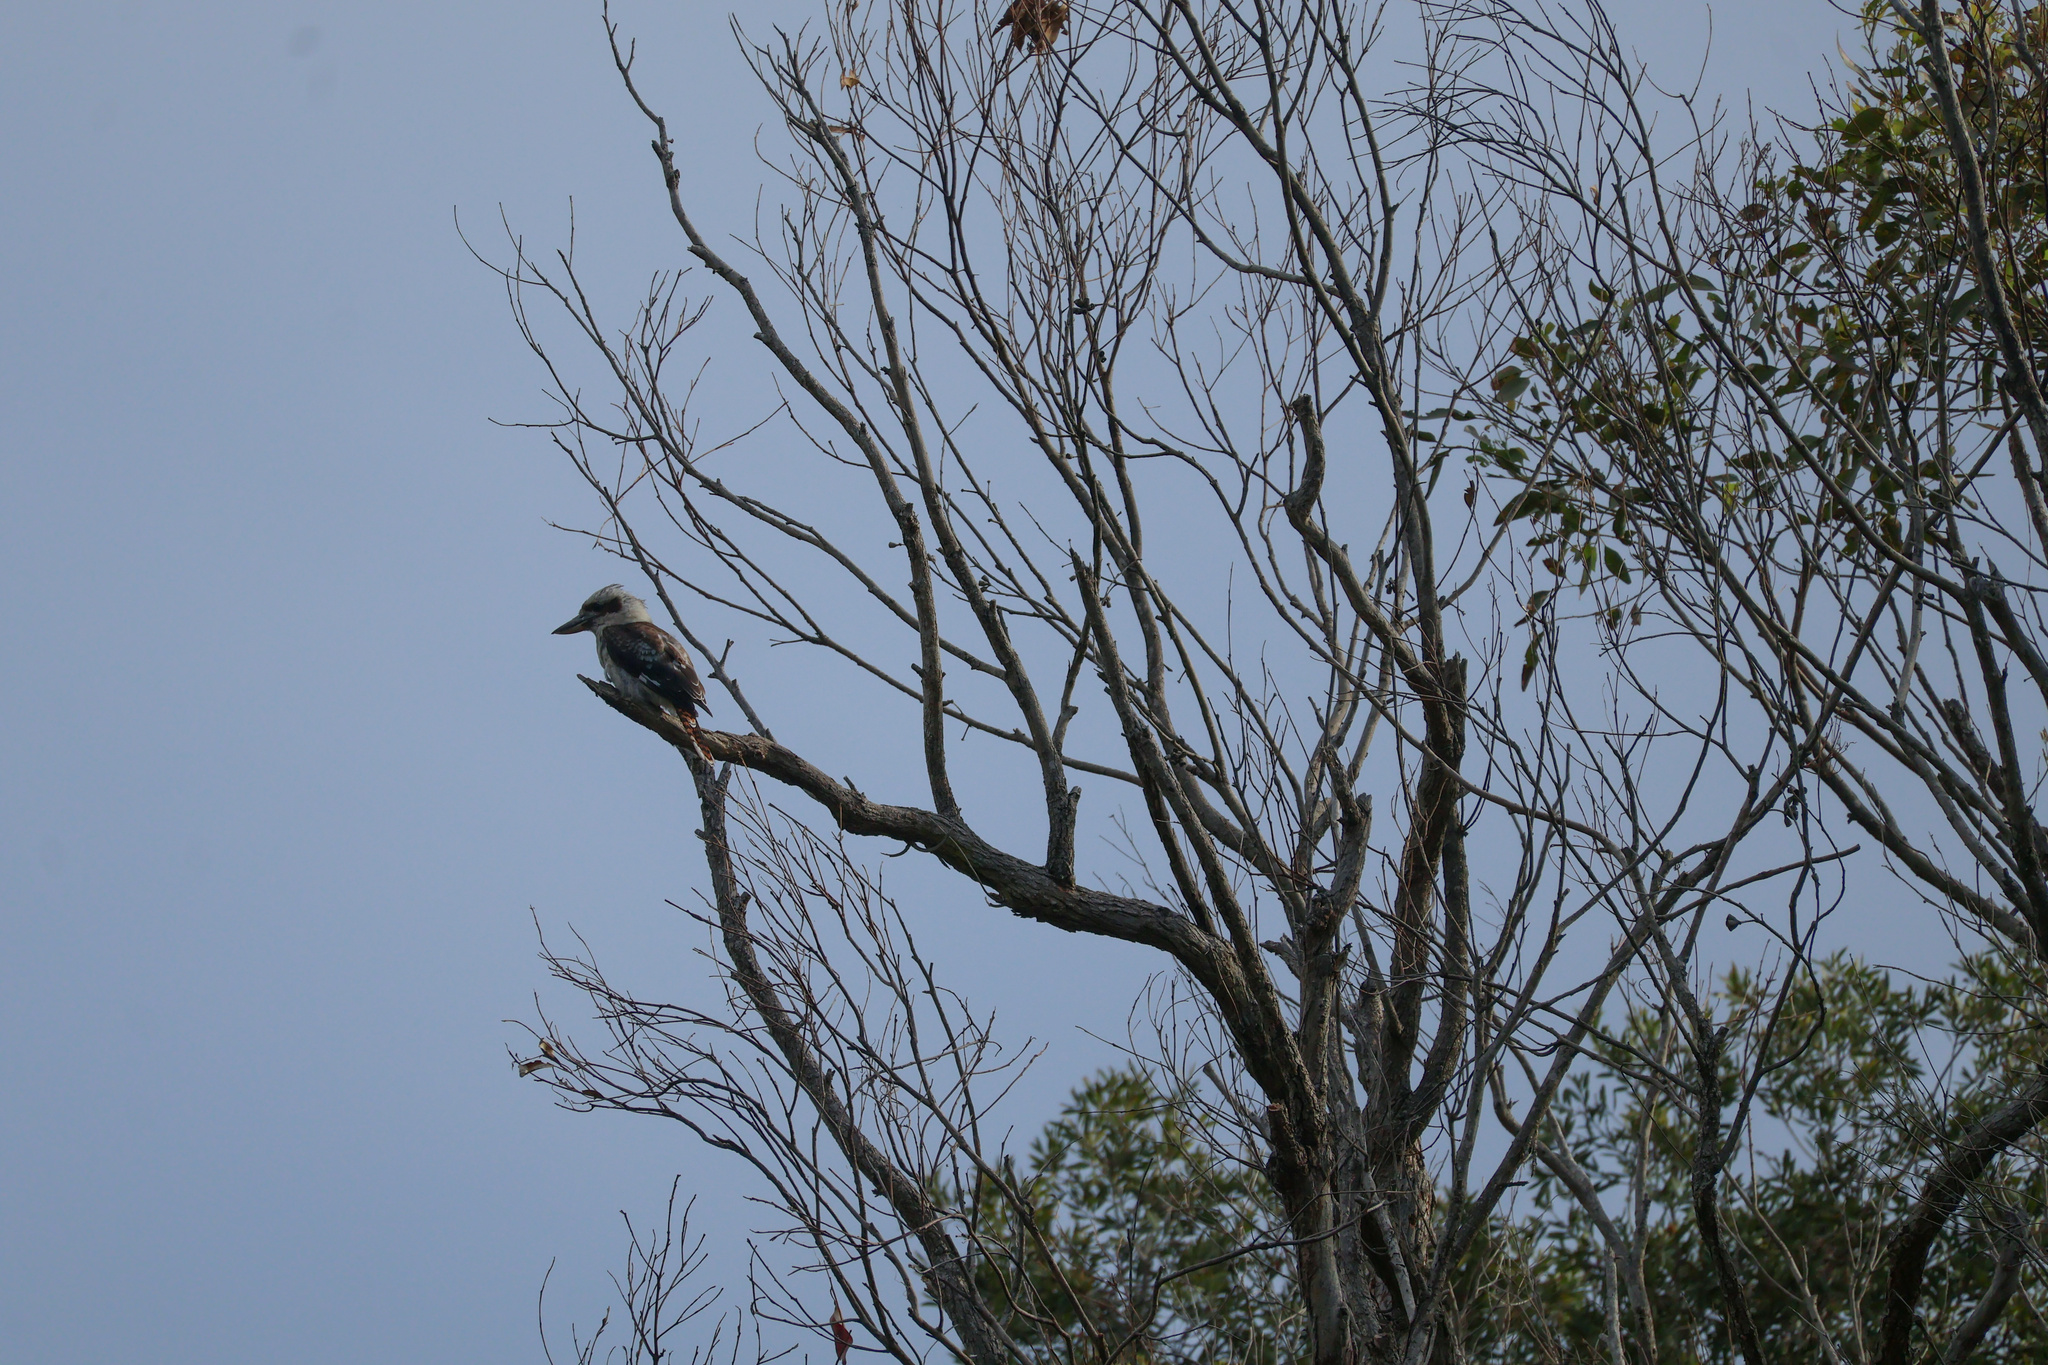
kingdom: Animalia
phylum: Chordata
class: Aves
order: Coraciiformes
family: Alcedinidae
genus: Dacelo
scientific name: Dacelo novaeguineae
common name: Laughing kookaburra
